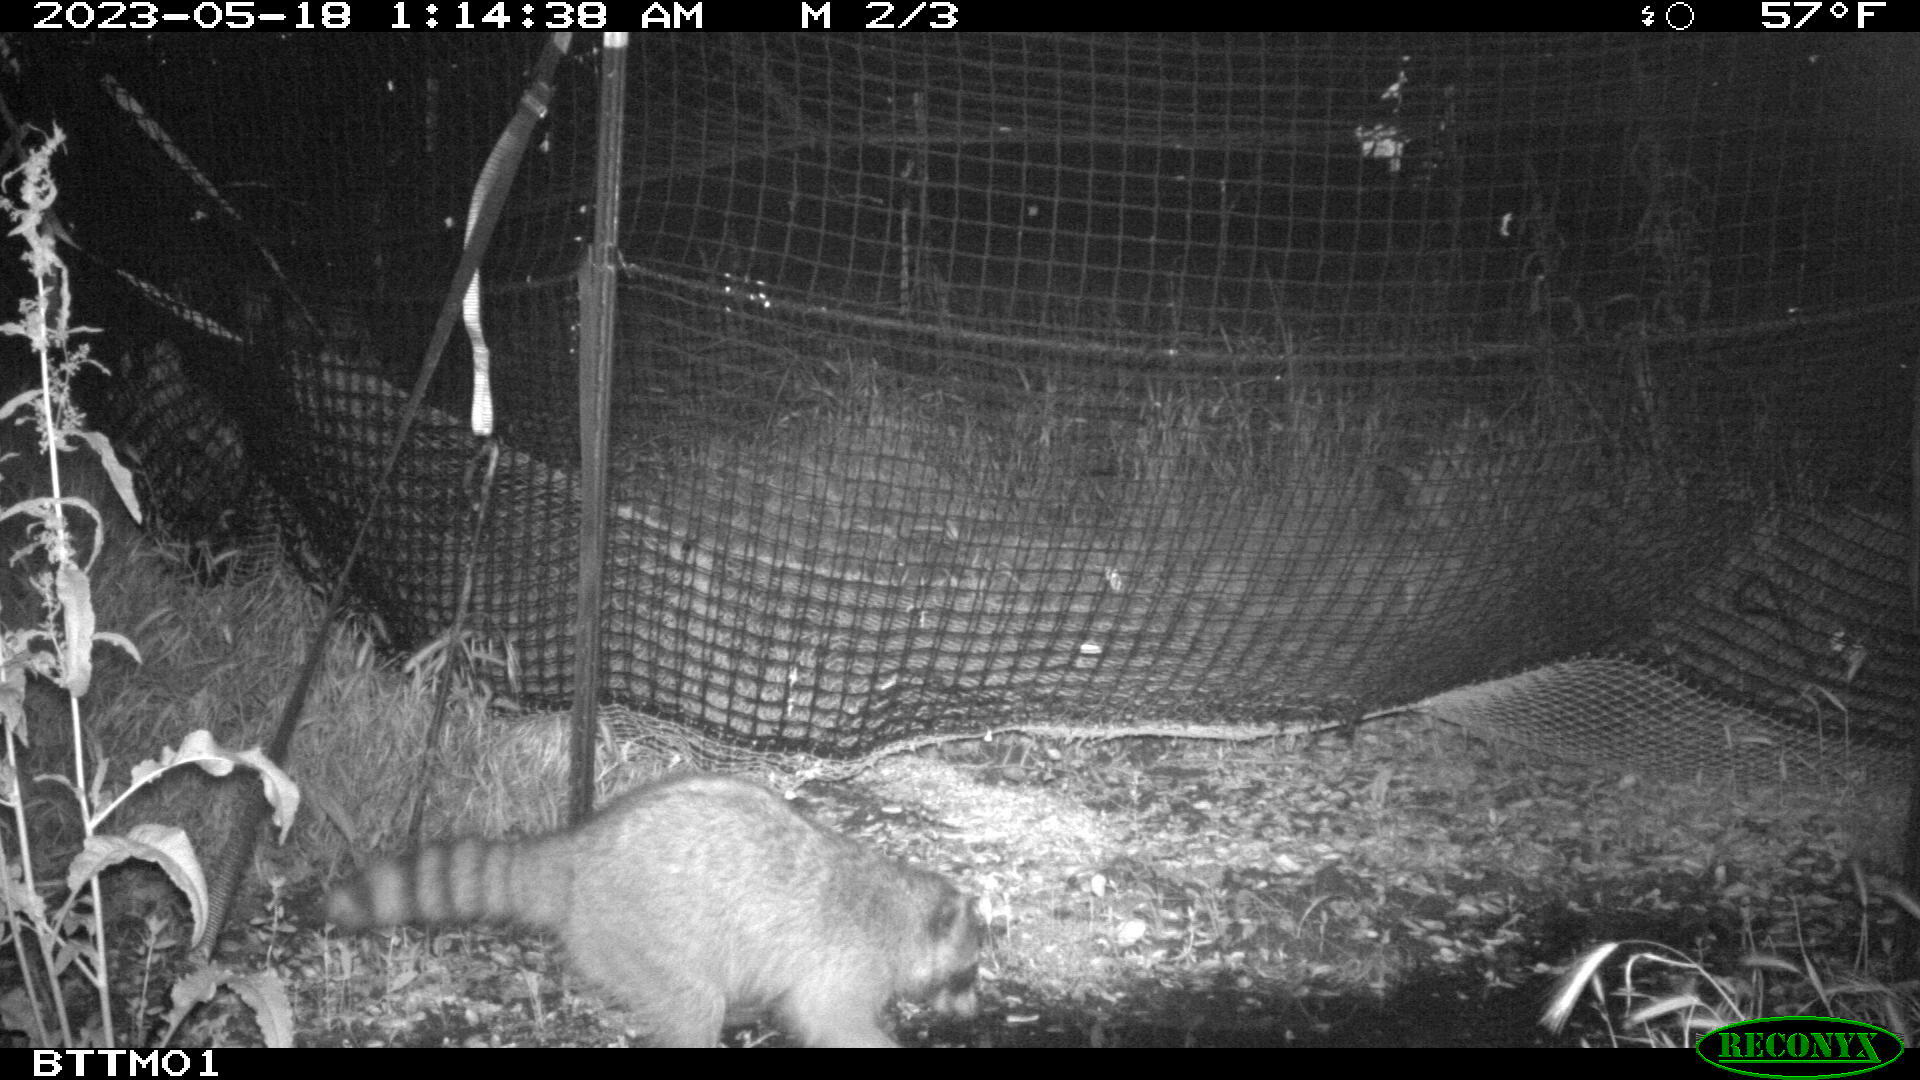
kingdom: Animalia
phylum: Chordata
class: Mammalia
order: Carnivora
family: Procyonidae
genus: Procyon
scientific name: Procyon lotor
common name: Raccoon
